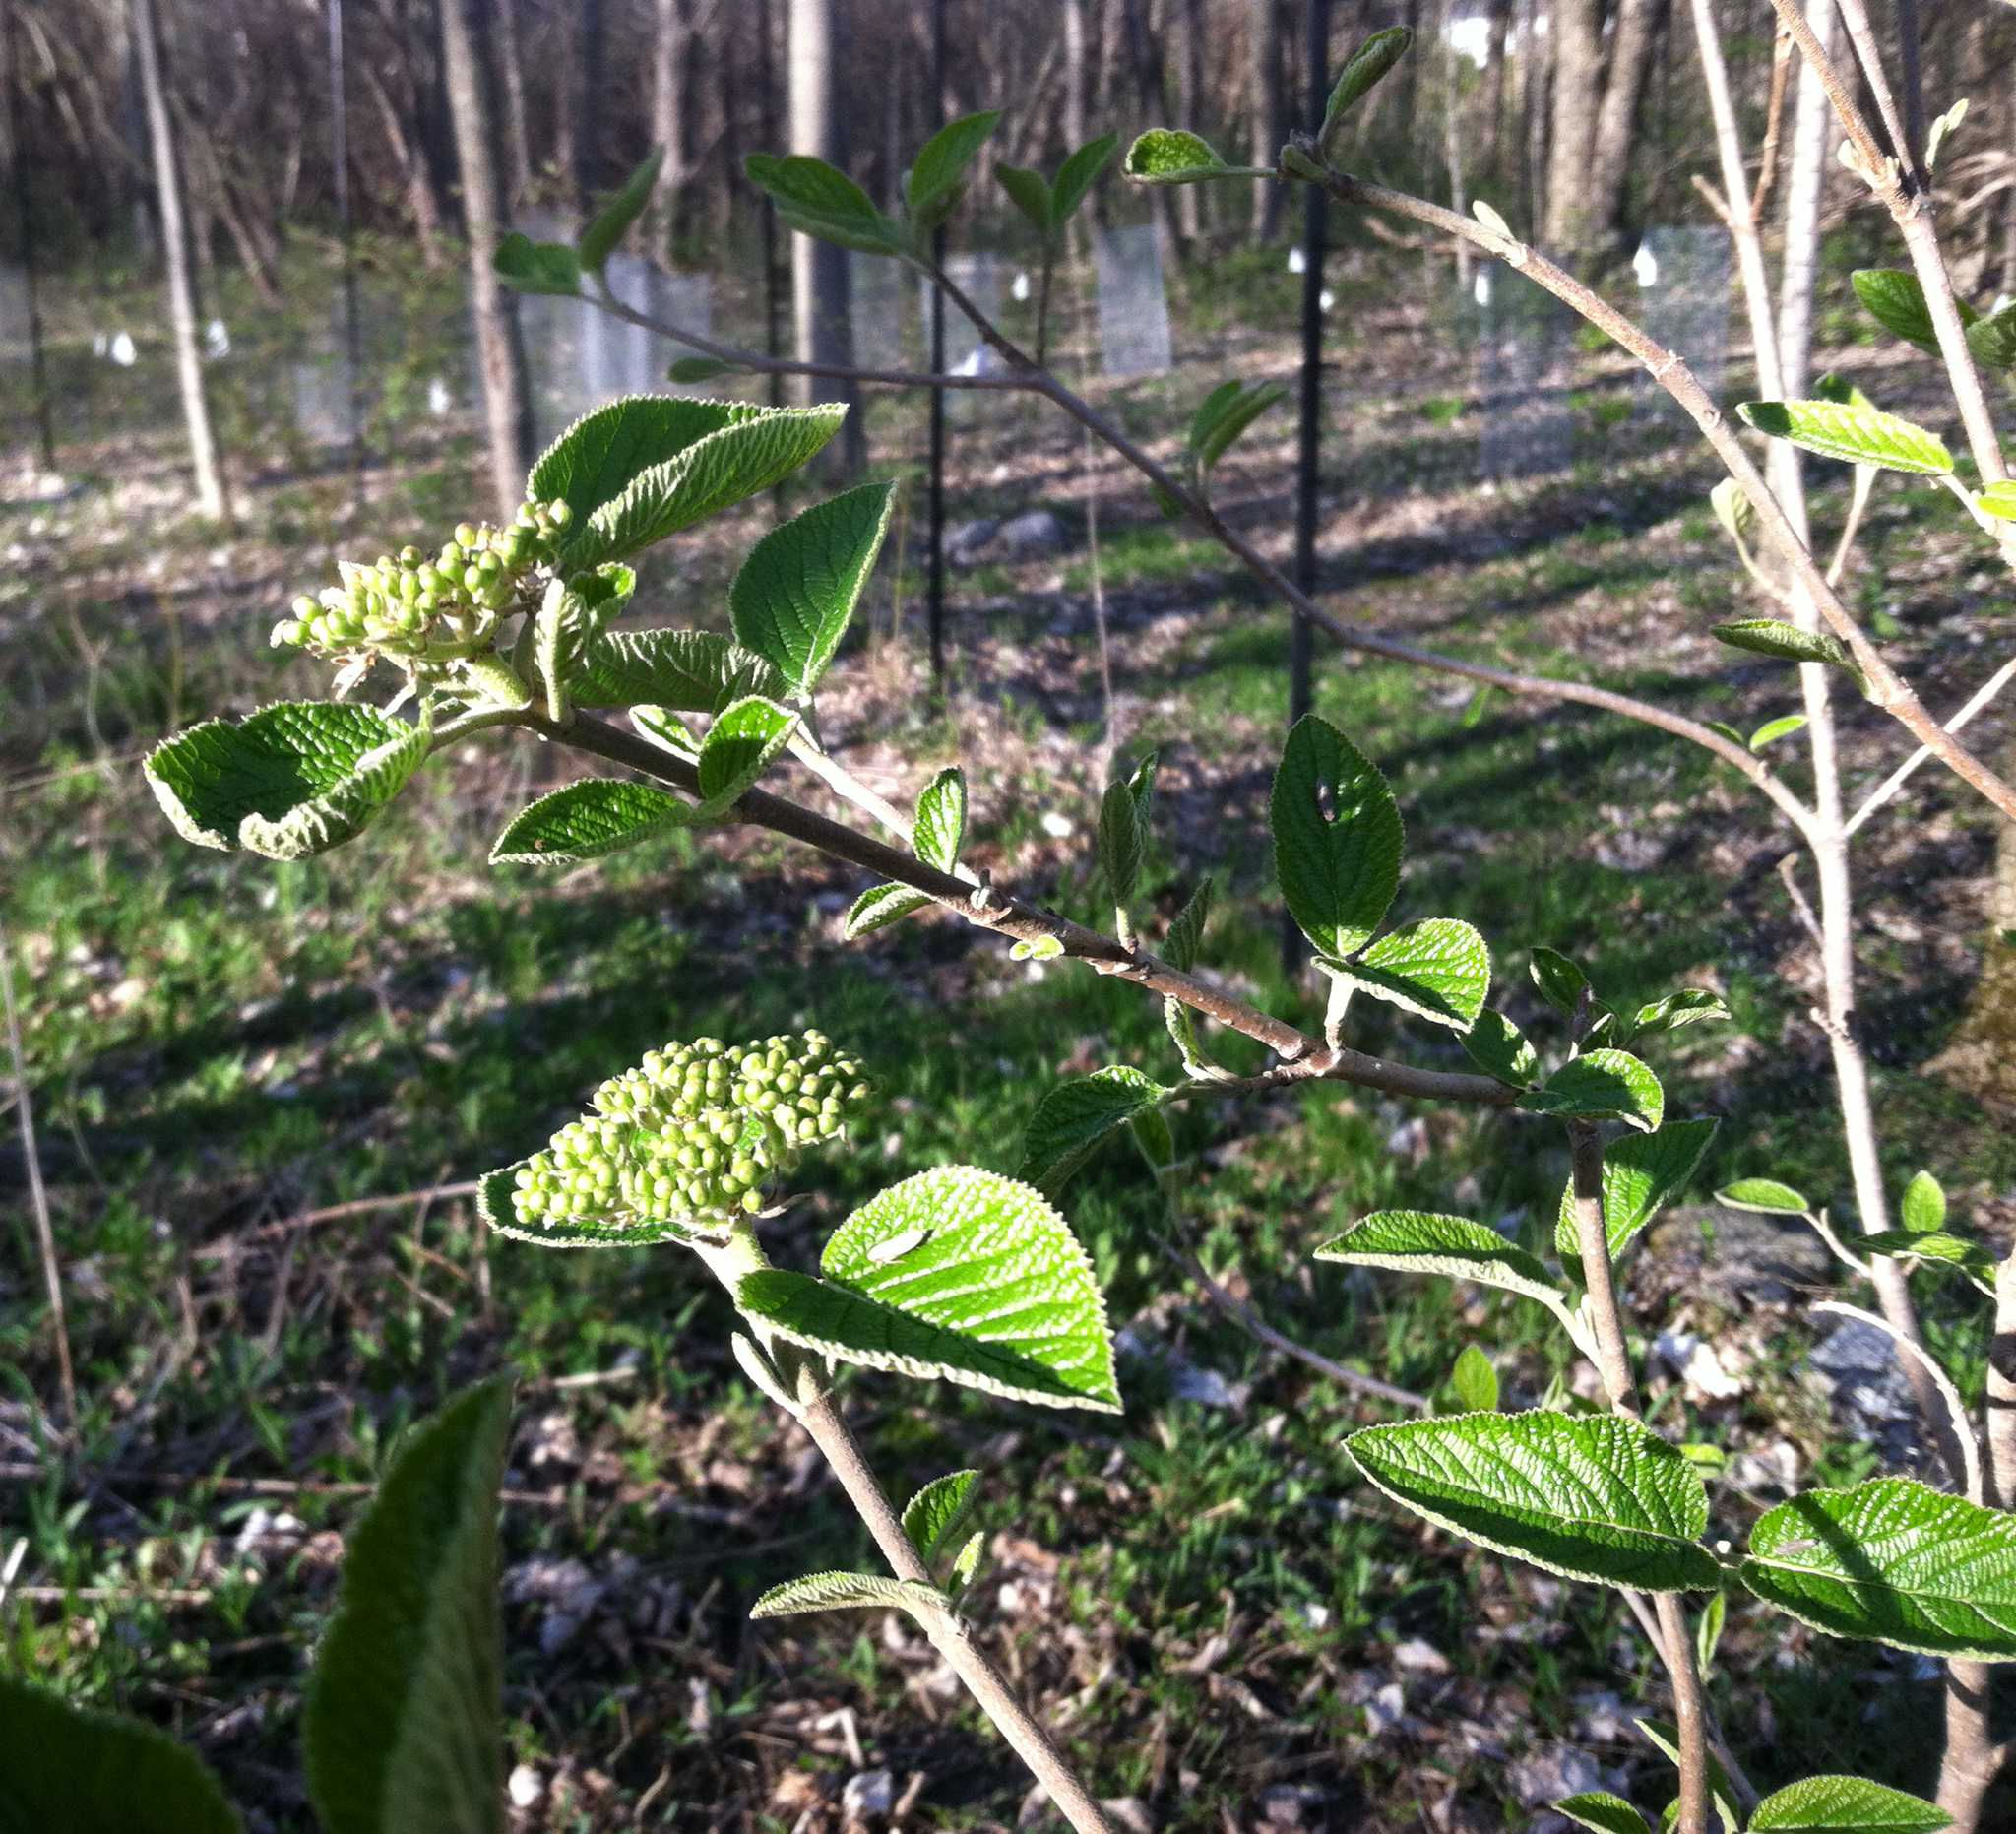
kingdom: Plantae
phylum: Tracheophyta
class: Magnoliopsida
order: Dipsacales
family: Viburnaceae
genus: Viburnum
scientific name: Viburnum lantana
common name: Wayfaring tree
